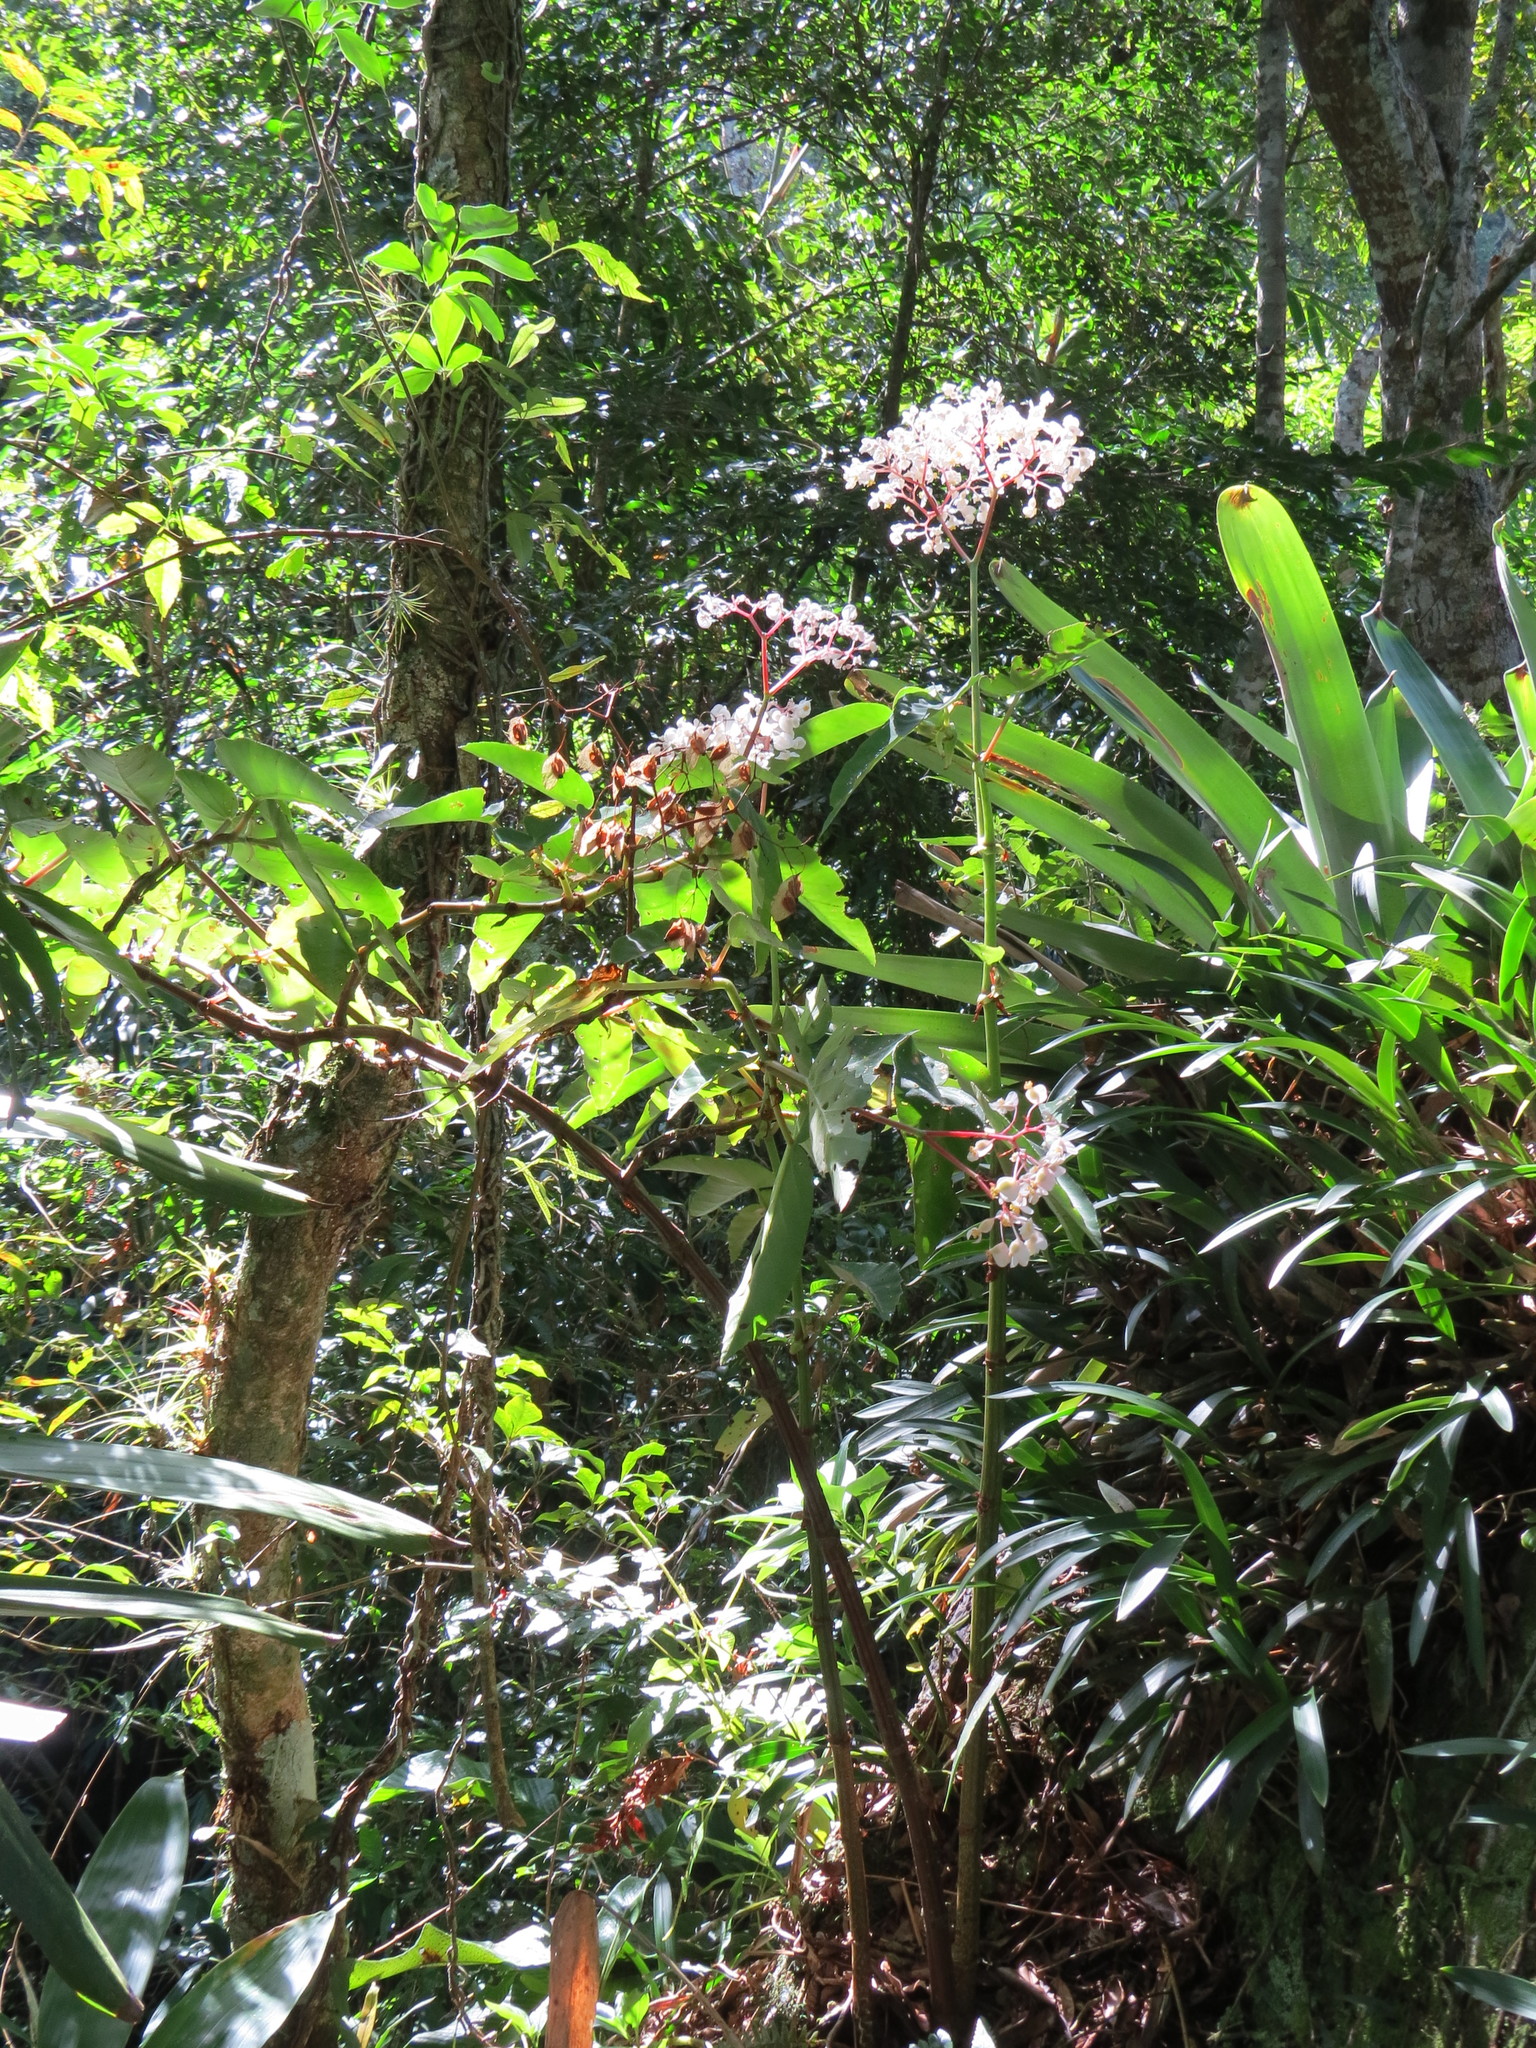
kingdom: Plantae
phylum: Tracheophyta
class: Magnoliopsida
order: Cucurbitales
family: Begoniaceae
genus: Begonia
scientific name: Begonia angularis
